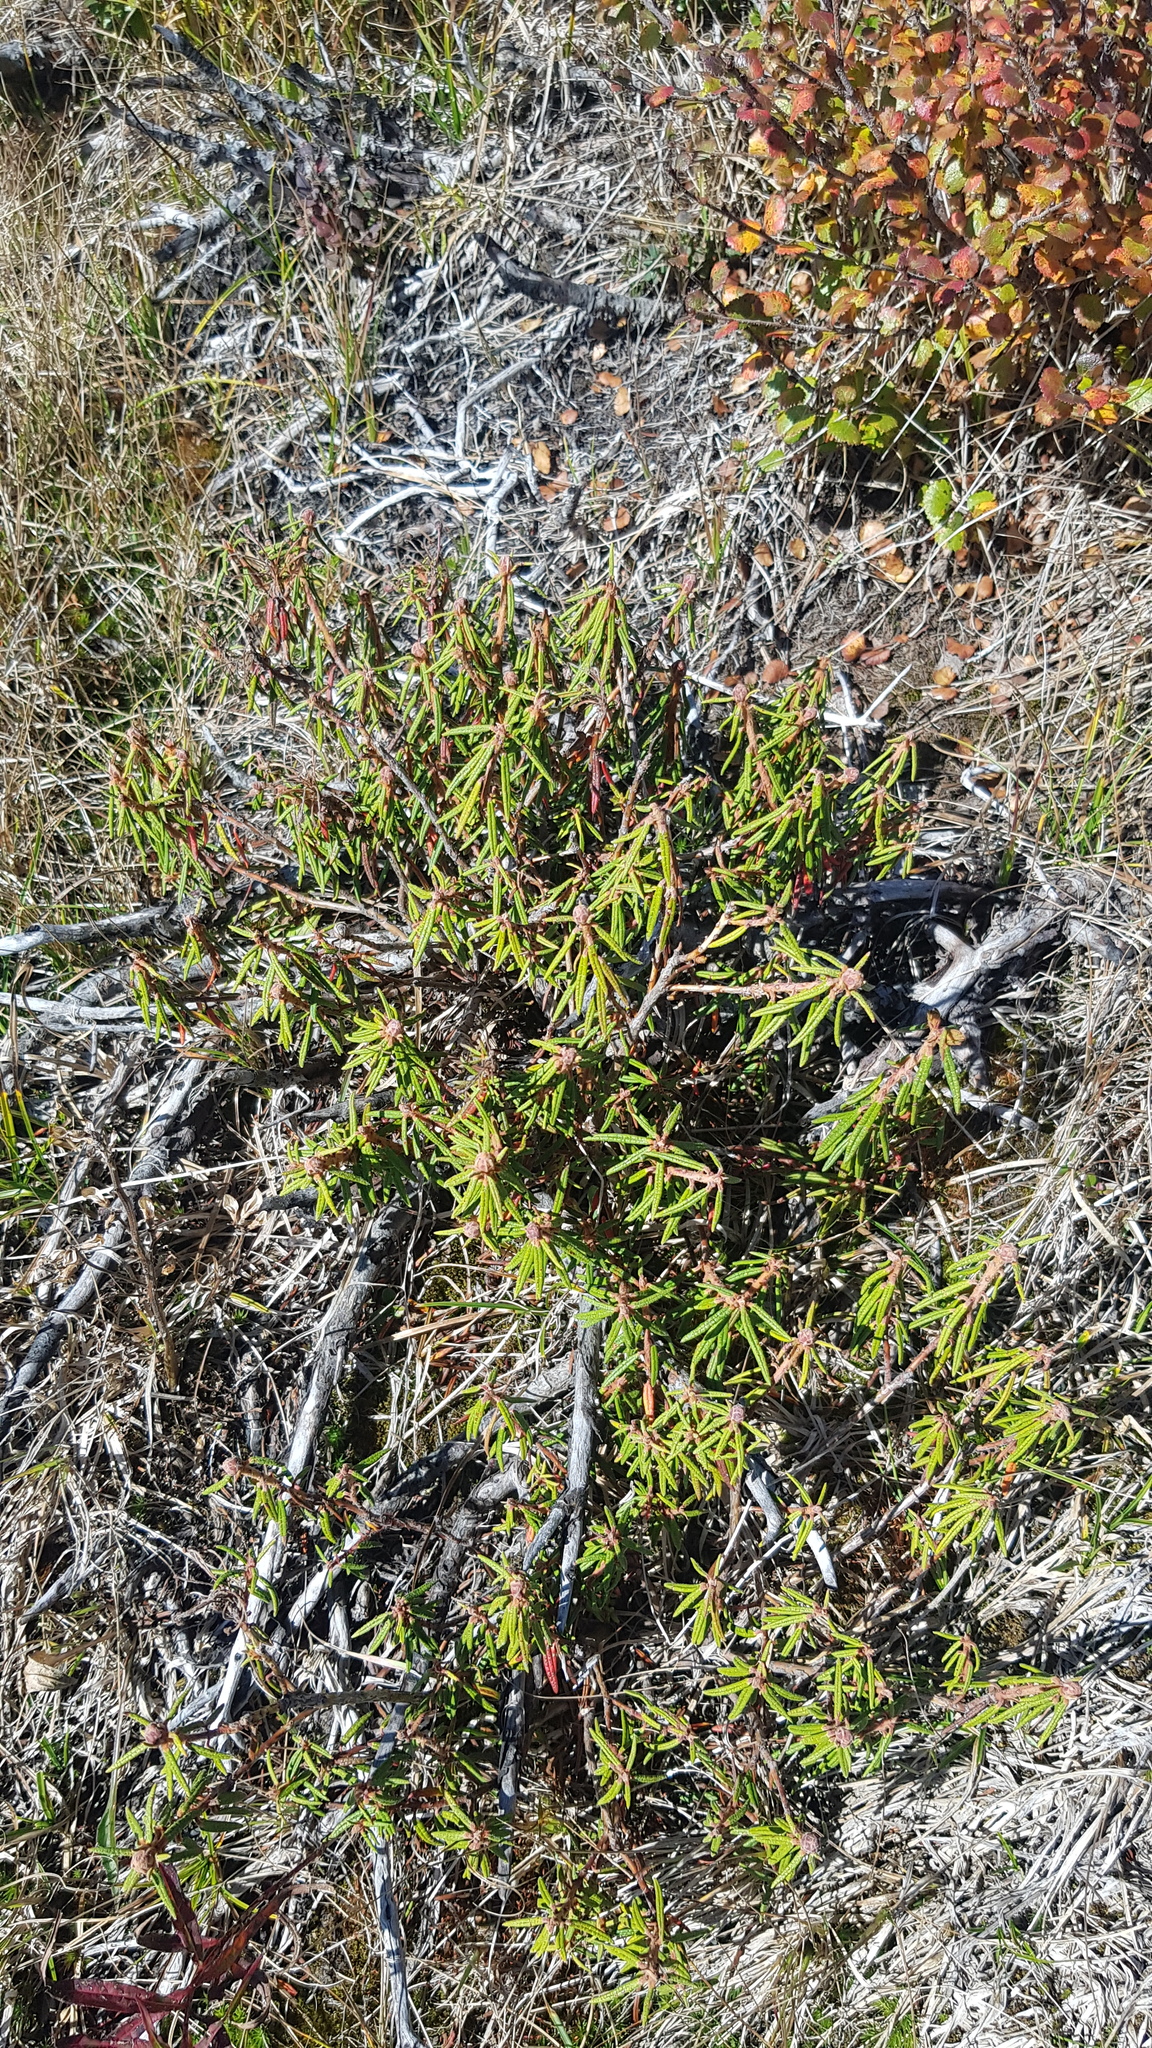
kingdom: Plantae
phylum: Tracheophyta
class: Magnoliopsida
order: Ericales
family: Ericaceae
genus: Rhododendron
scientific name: Rhododendron tomentosum
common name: Marsh labrador tea
